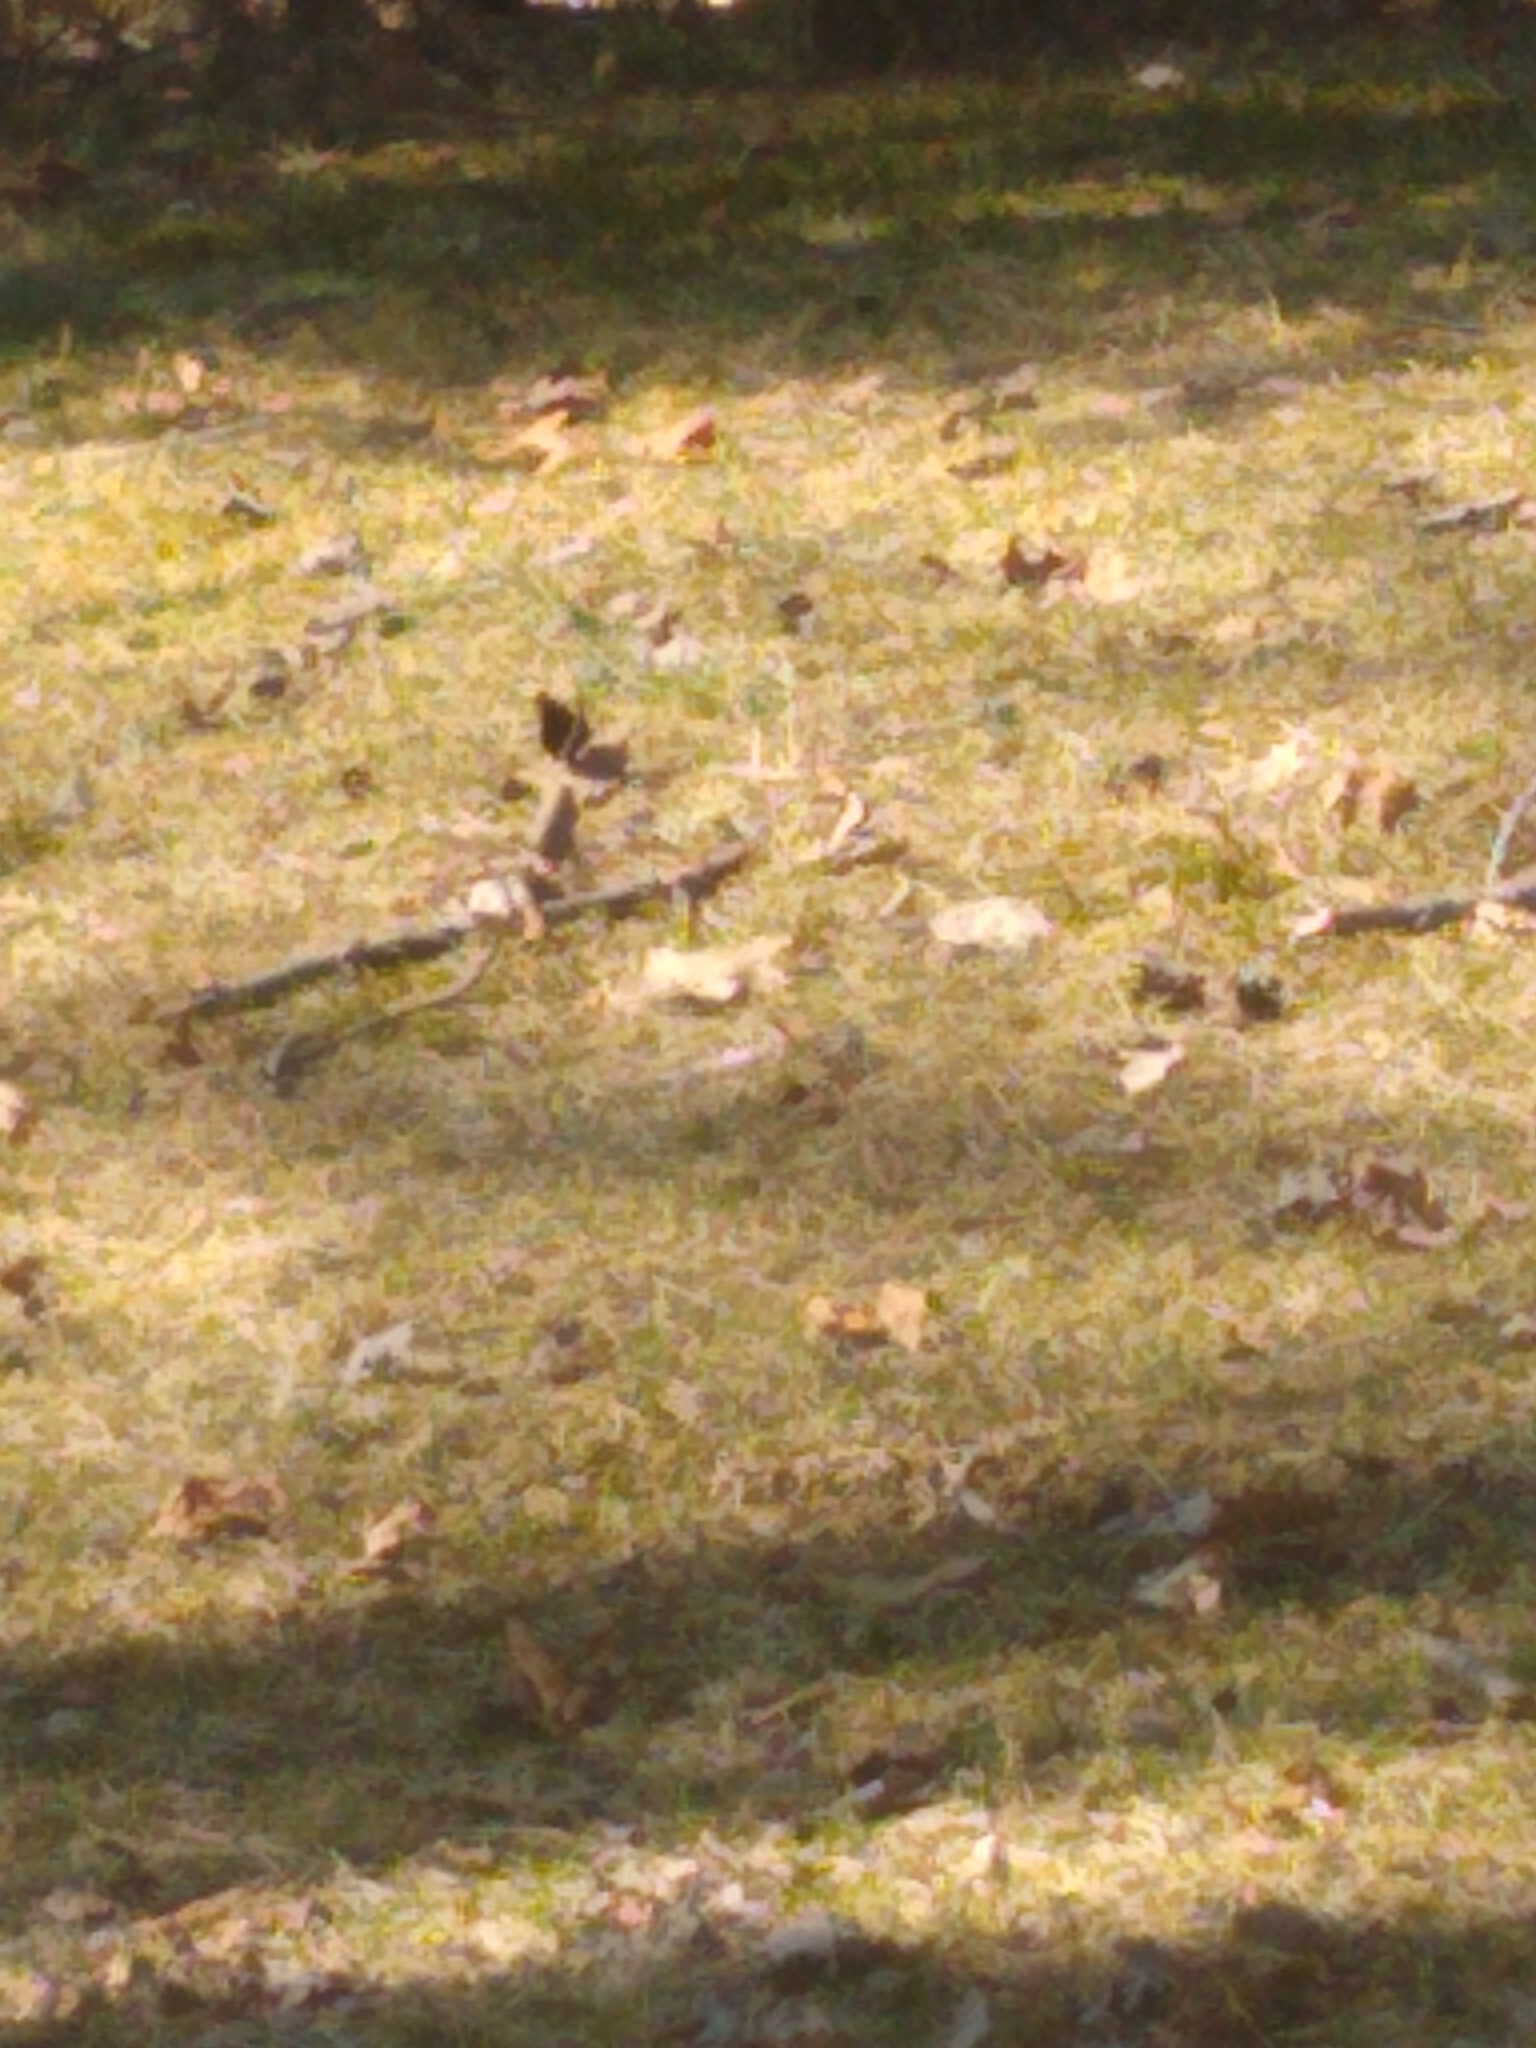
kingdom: Animalia
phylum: Arthropoda
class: Insecta
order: Lepidoptera
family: Nymphalidae
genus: Nymphalis
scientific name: Nymphalis antiopa
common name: Camberwell beauty
